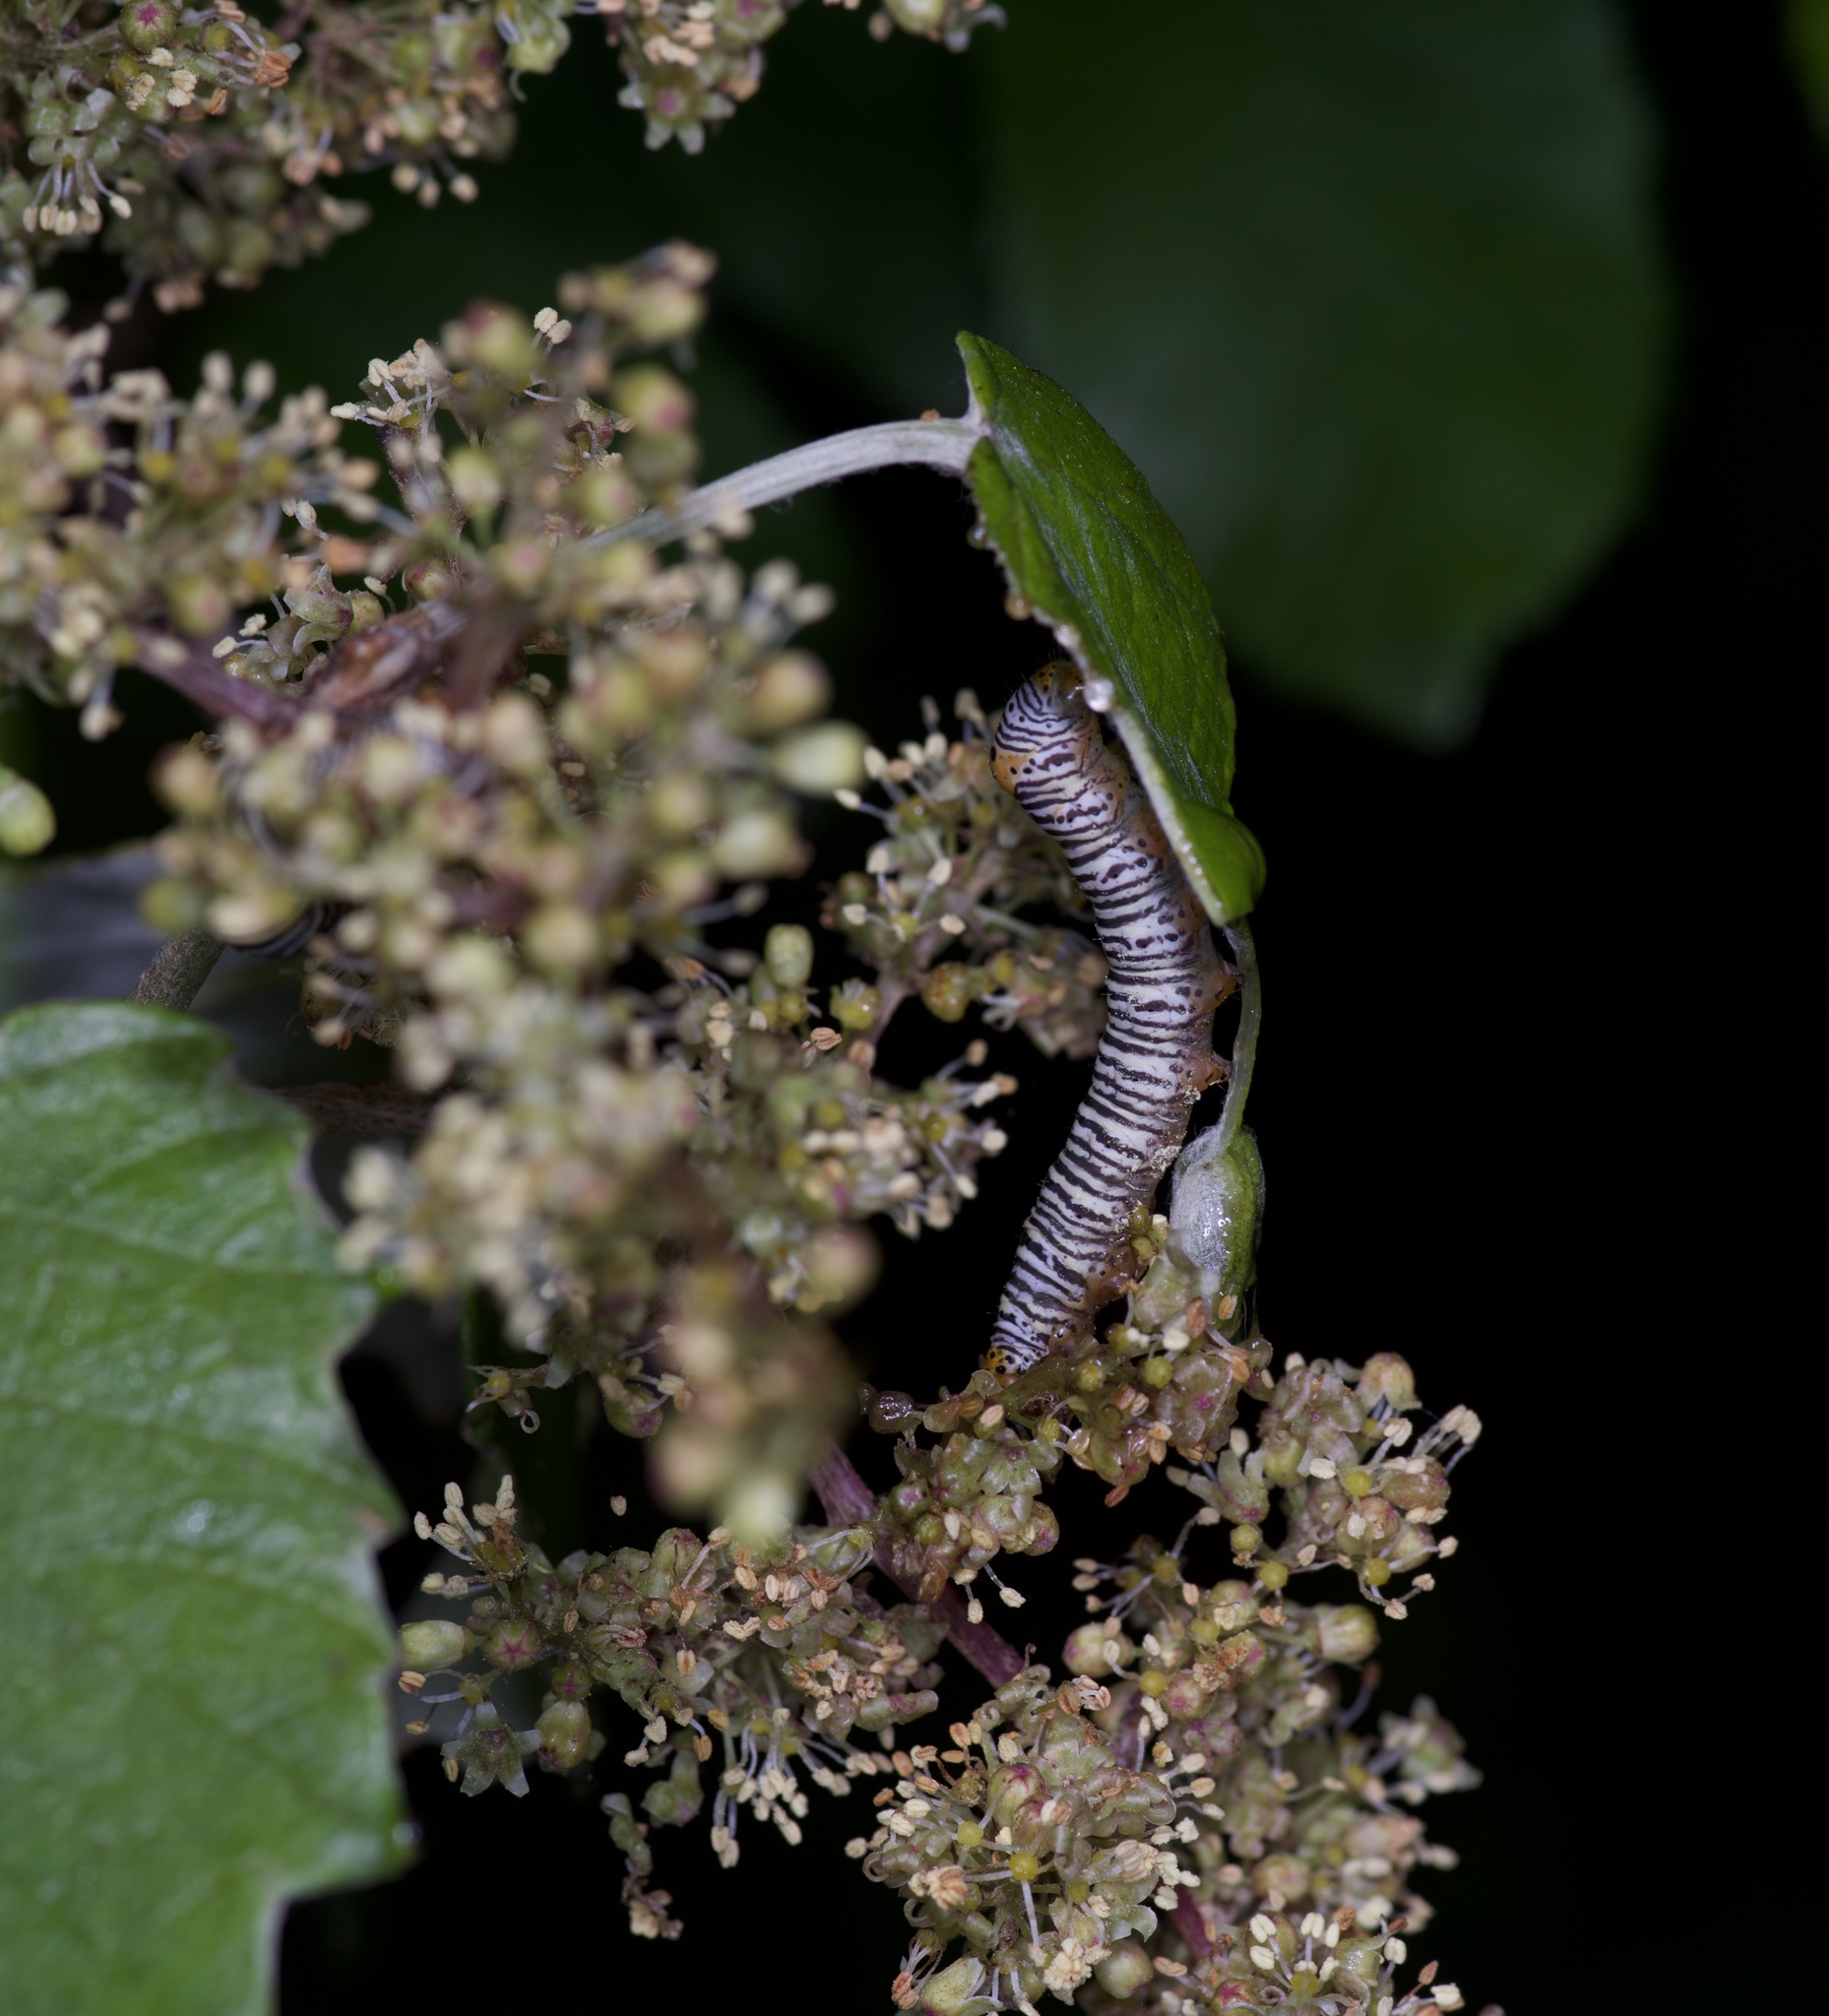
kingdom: Animalia
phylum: Arthropoda
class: Insecta
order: Lepidoptera
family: Noctuidae
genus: Psychomorpha
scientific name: Psychomorpha epimenis
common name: Grapevine epimenis moth
